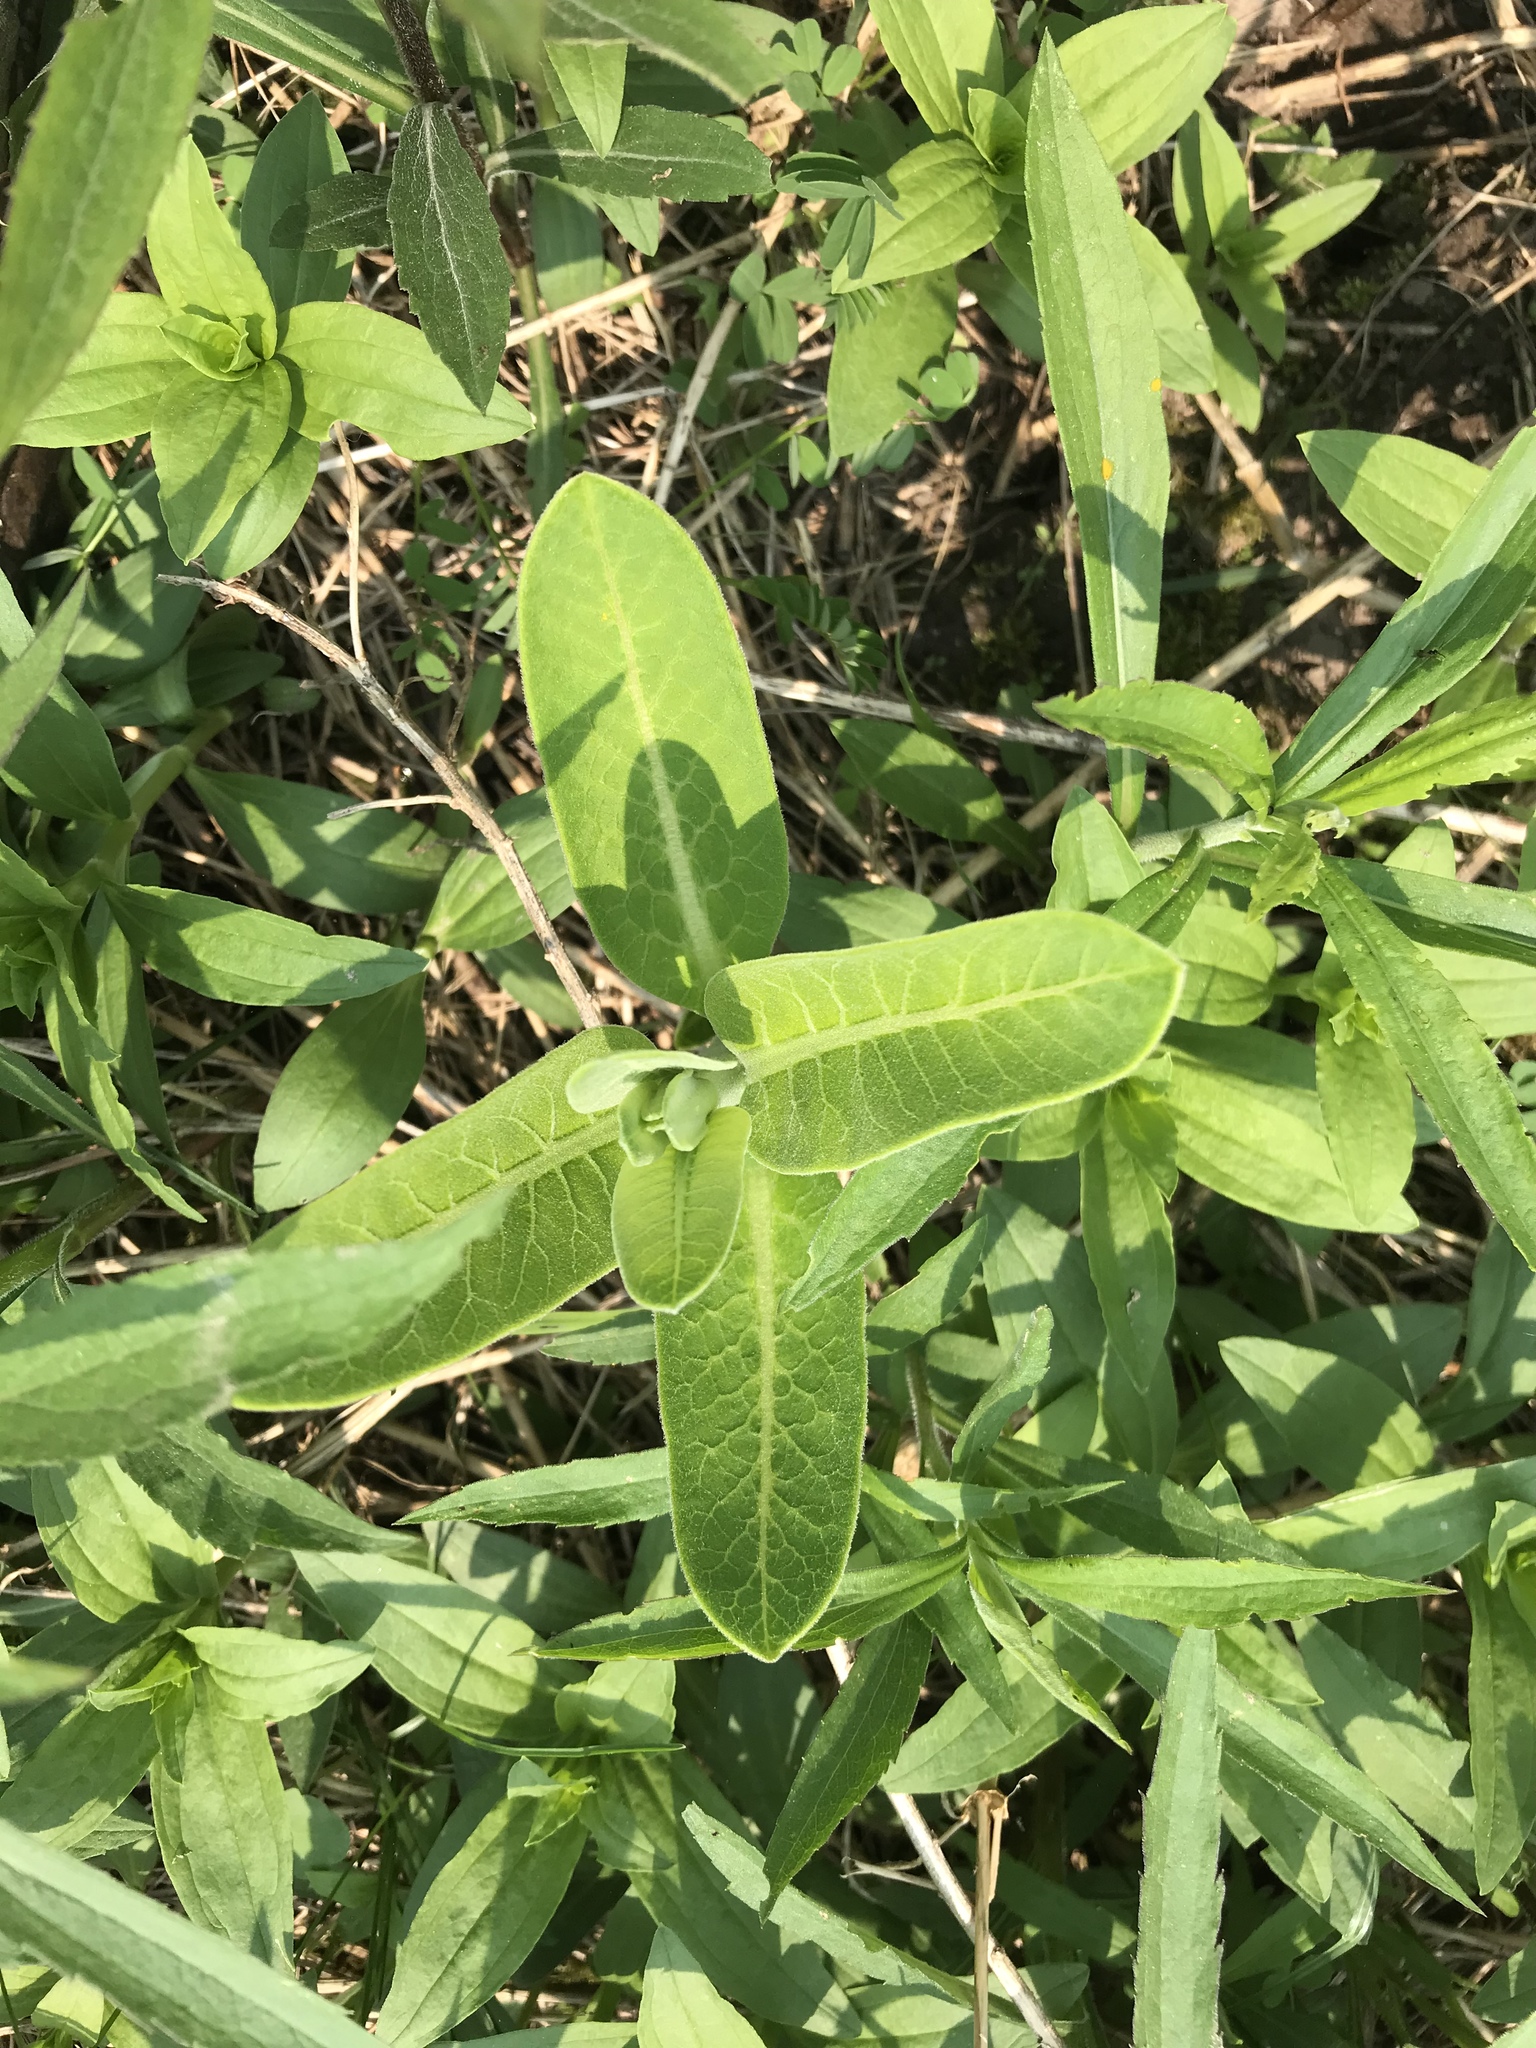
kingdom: Plantae
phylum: Tracheophyta
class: Magnoliopsida
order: Gentianales
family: Apocynaceae
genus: Asclepias
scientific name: Asclepias syriaca
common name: Common milkweed
